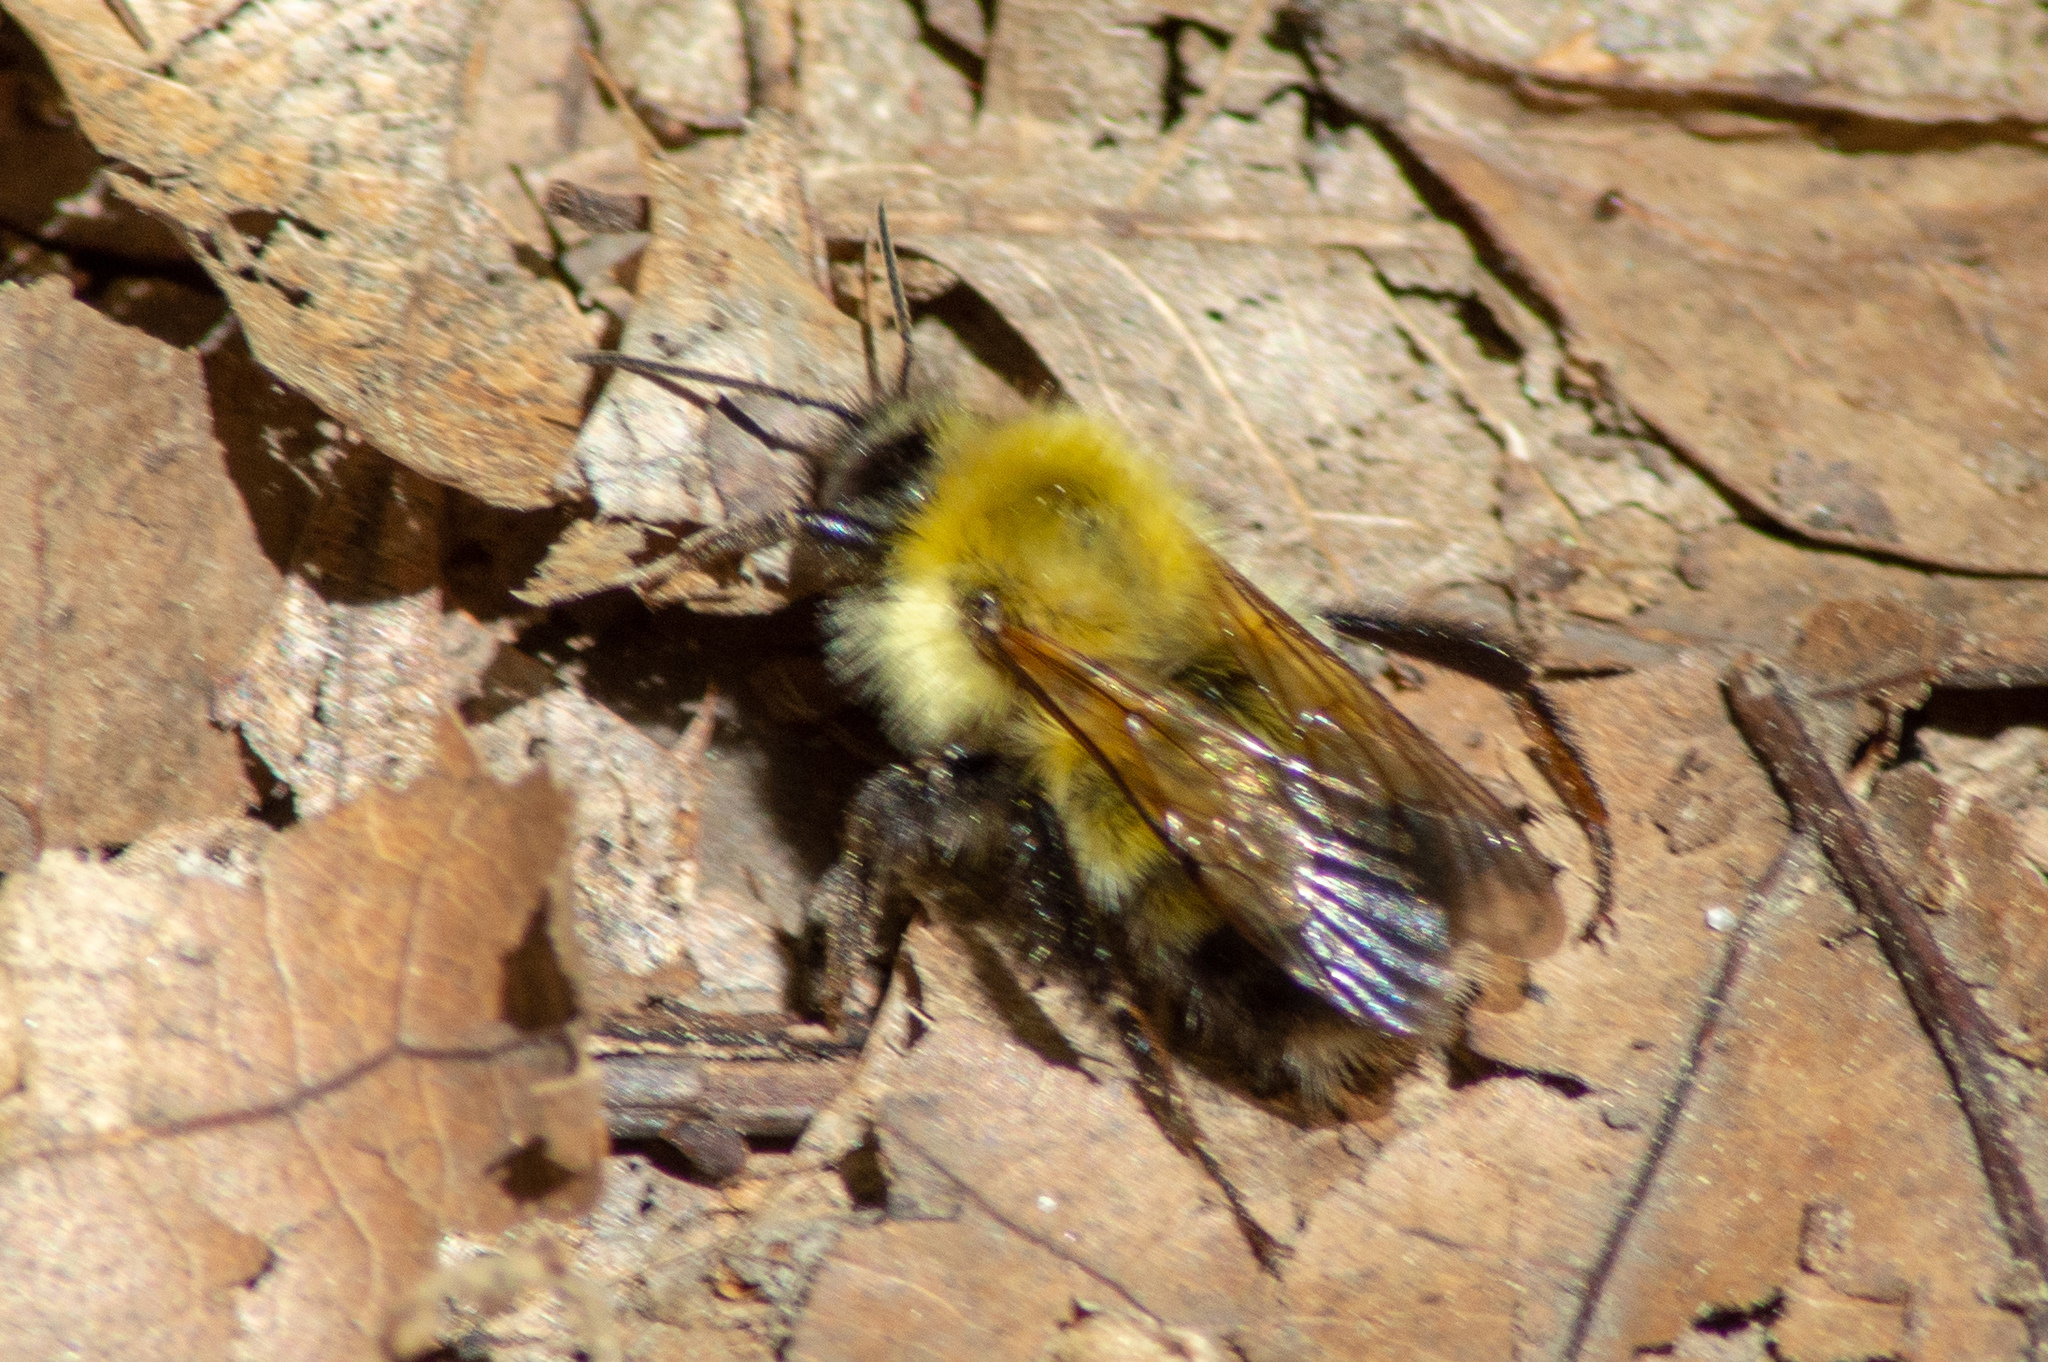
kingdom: Animalia
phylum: Arthropoda
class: Insecta
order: Hymenoptera
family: Apidae
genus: Bombus
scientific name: Bombus perplexus
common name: Confusing bumble bee
